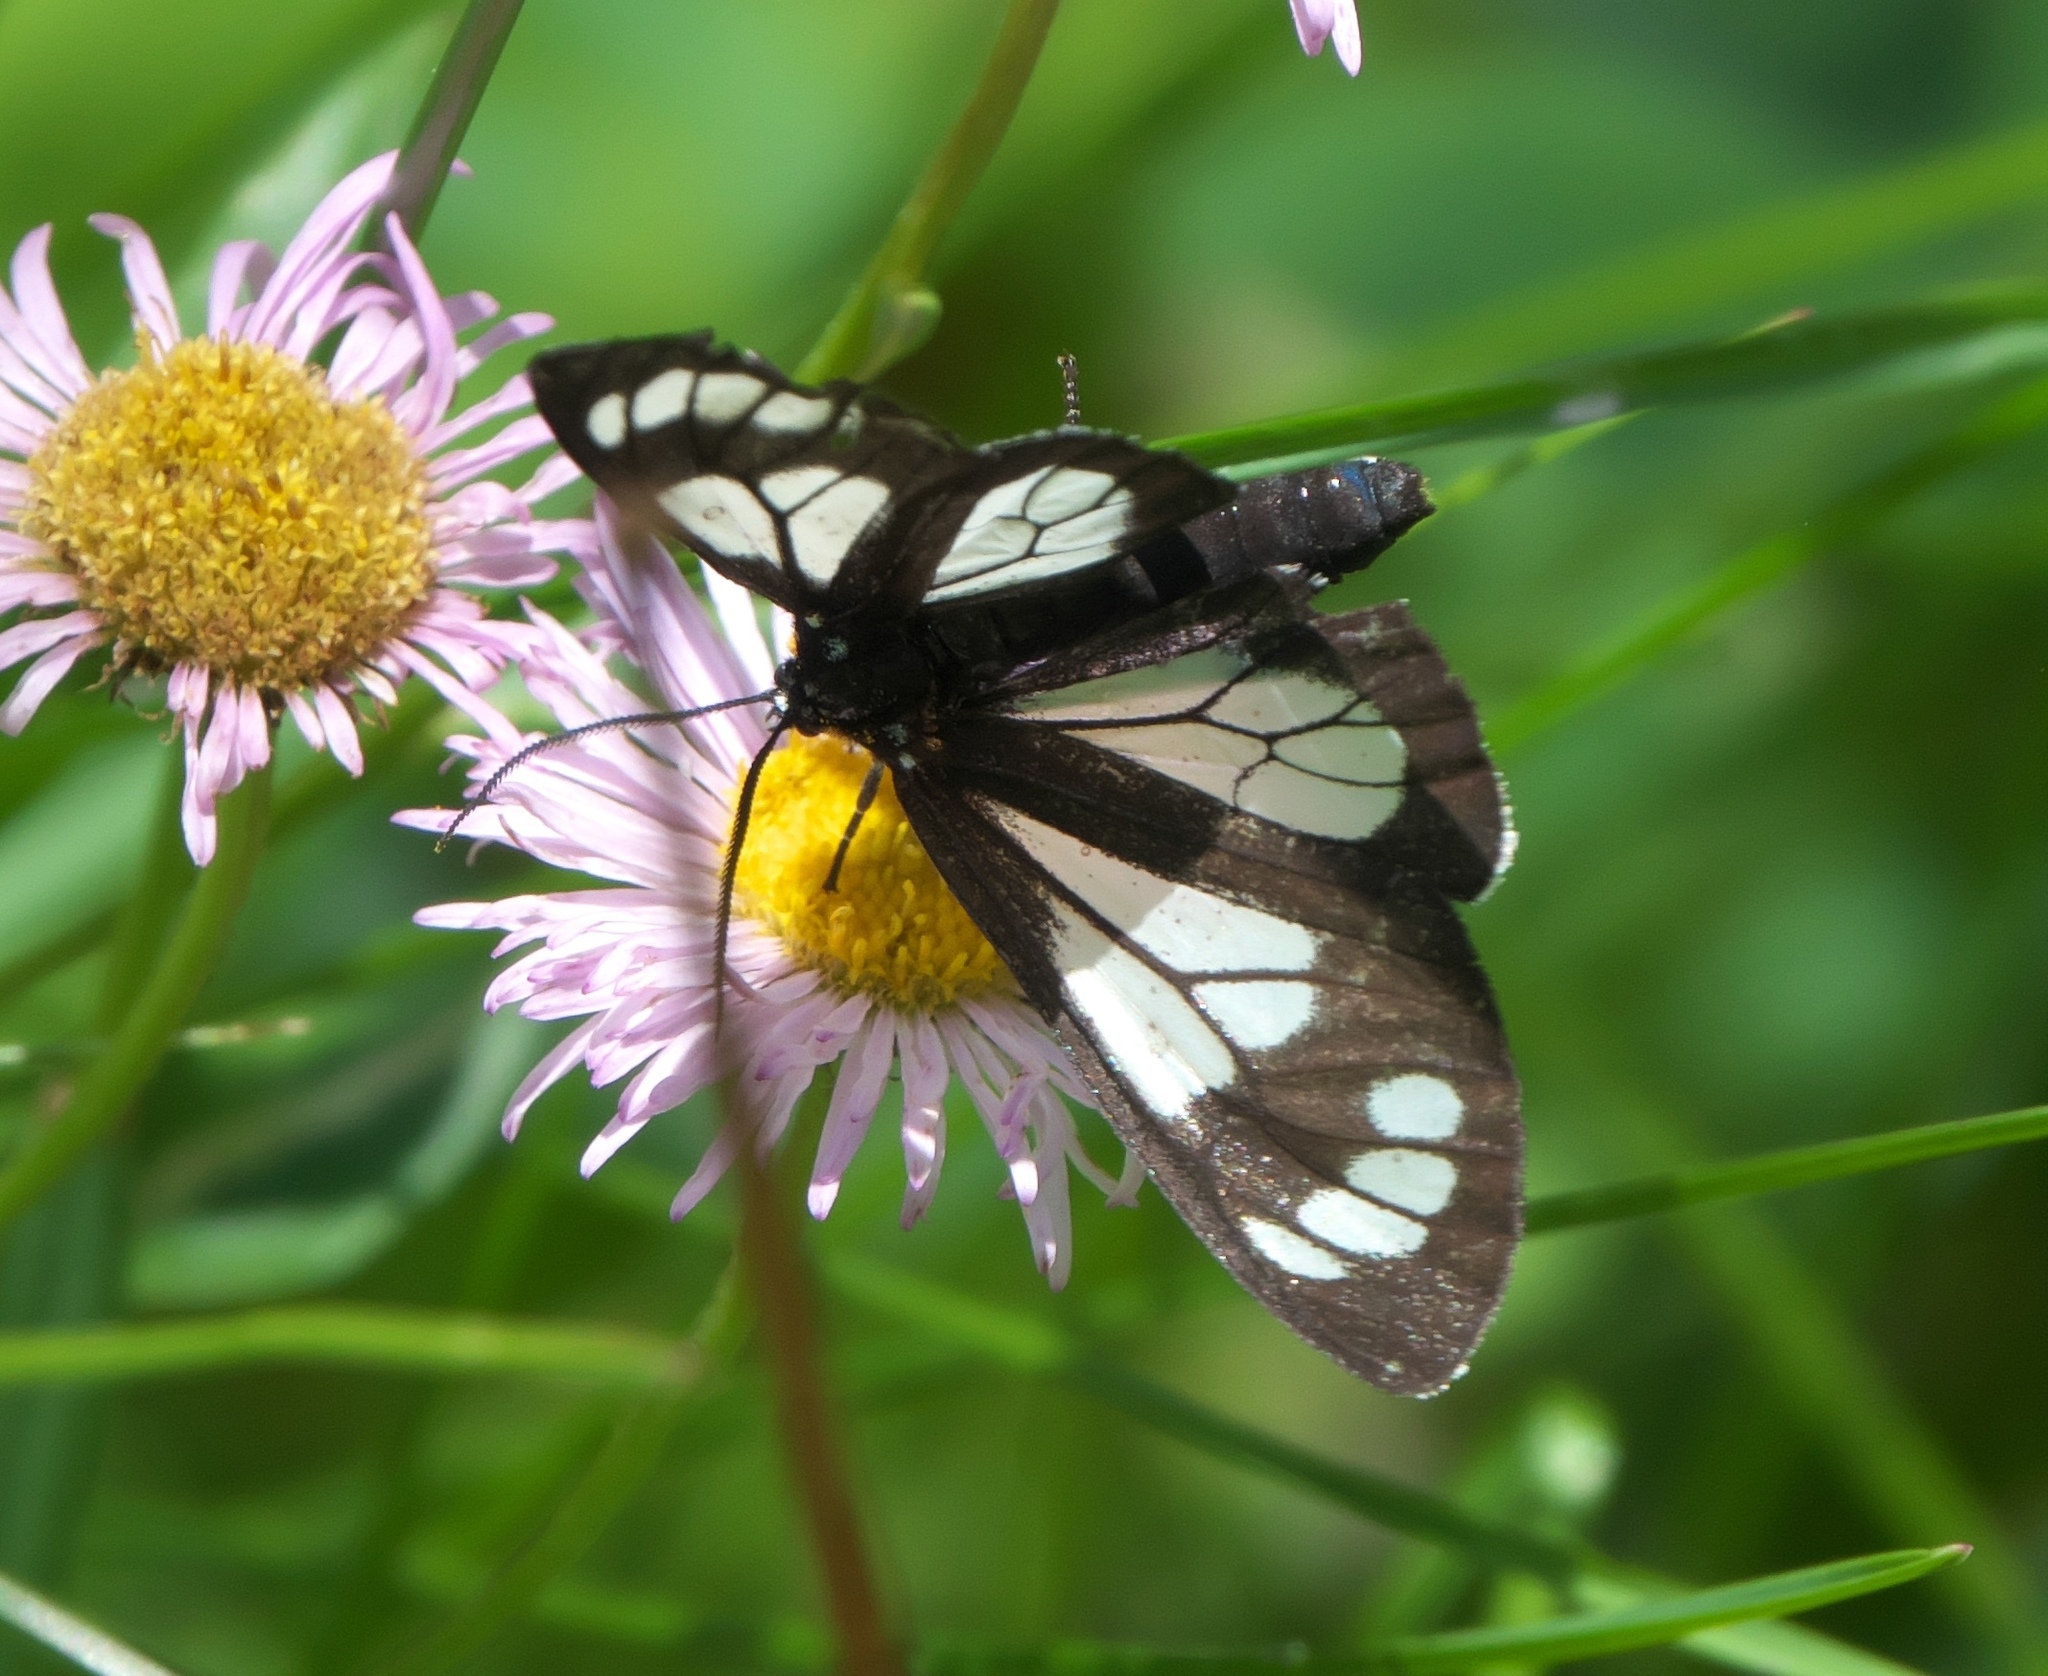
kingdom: Animalia
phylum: Arthropoda
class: Insecta
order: Lepidoptera
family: Erebidae
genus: Gnophaela
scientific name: Gnophaela vermiculata
